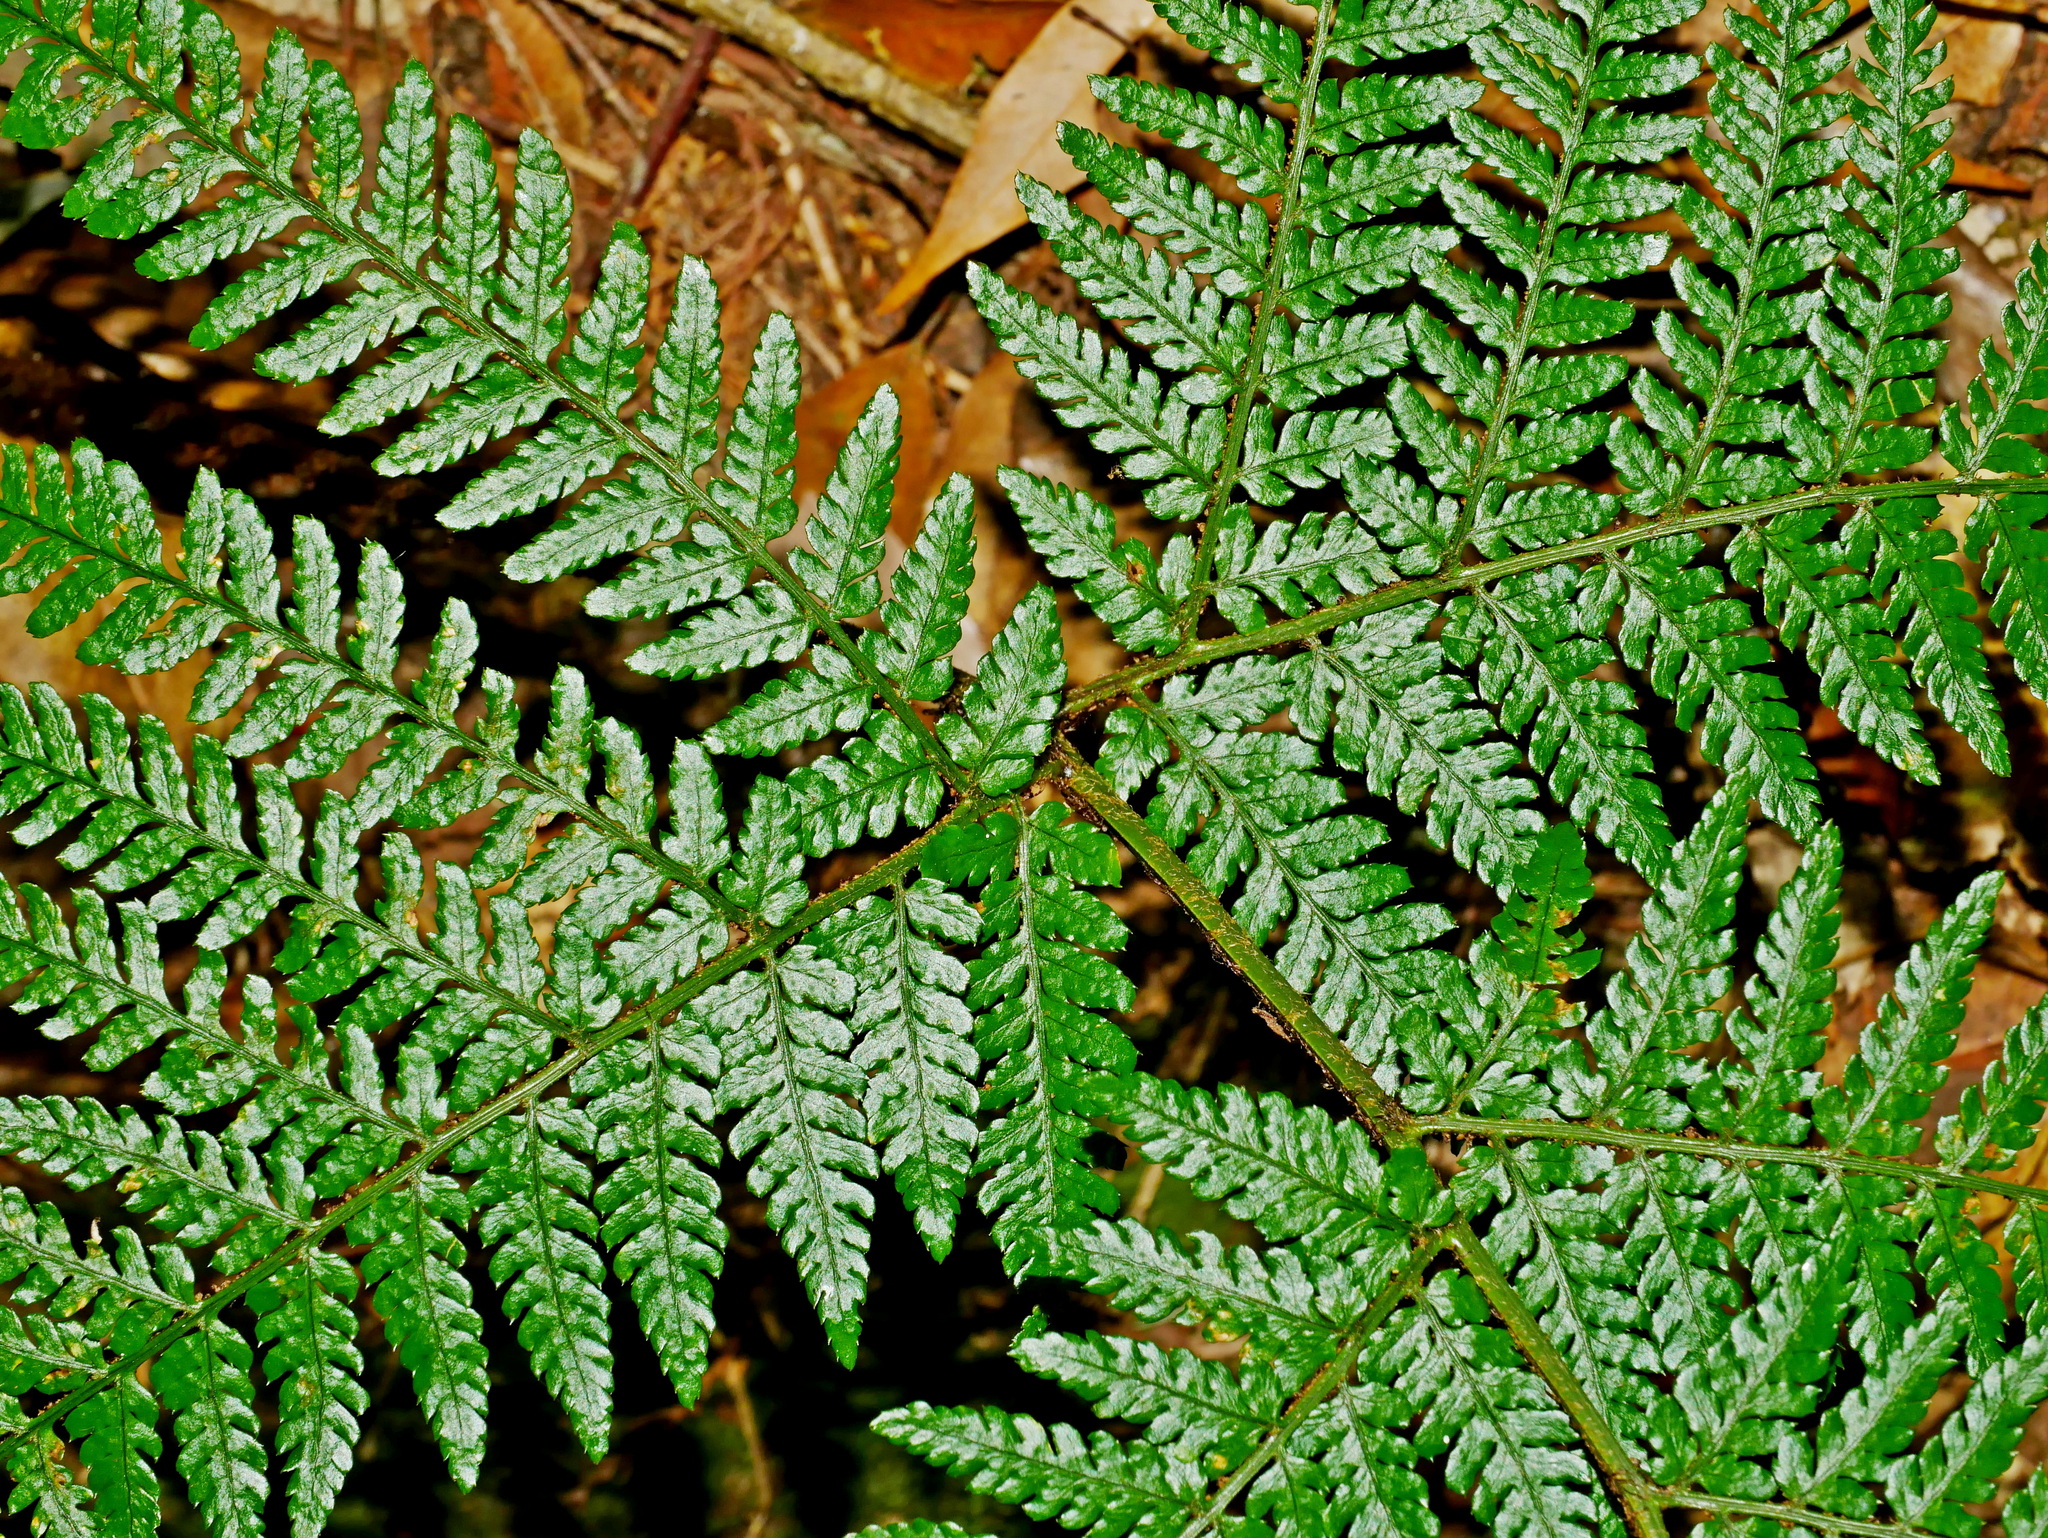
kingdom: Plantae
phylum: Tracheophyta
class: Polypodiopsida
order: Polypodiales
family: Dryopteridaceae
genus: Dryopteris
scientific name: Dryopteris formosana
